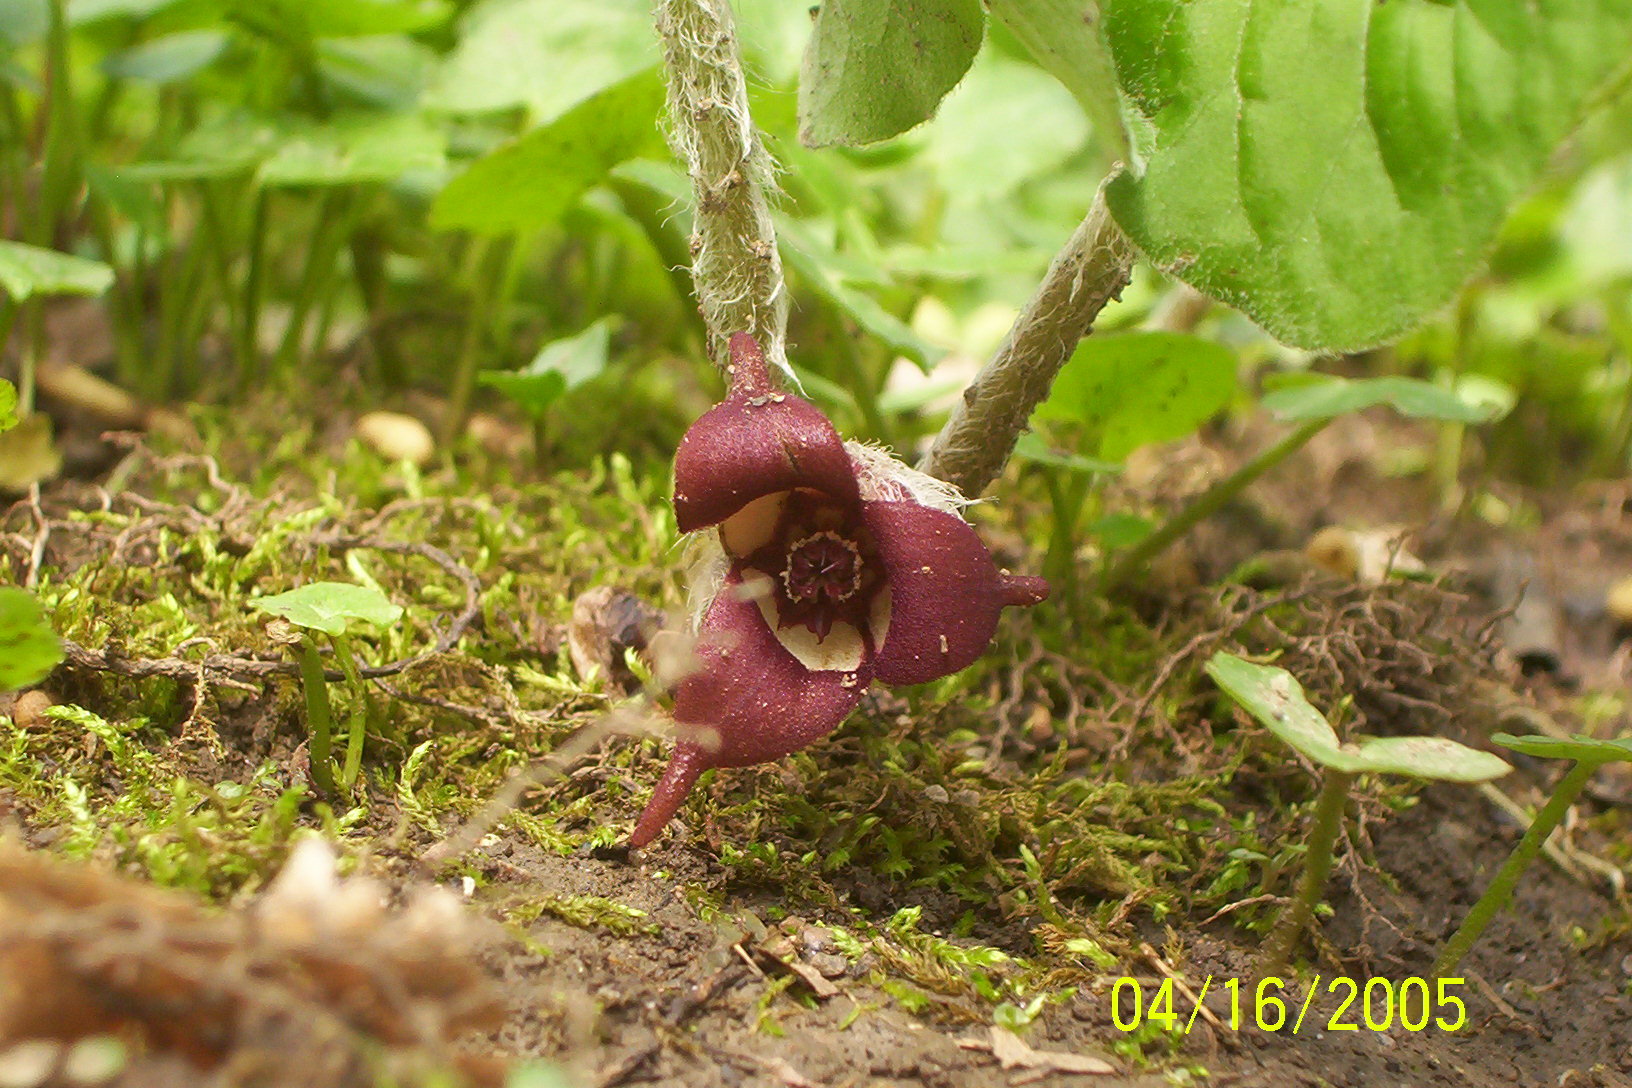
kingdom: Plantae
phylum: Tracheophyta
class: Magnoliopsida
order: Piperales
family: Aristolochiaceae
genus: Asarum
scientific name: Asarum canadense
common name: Wild ginger
